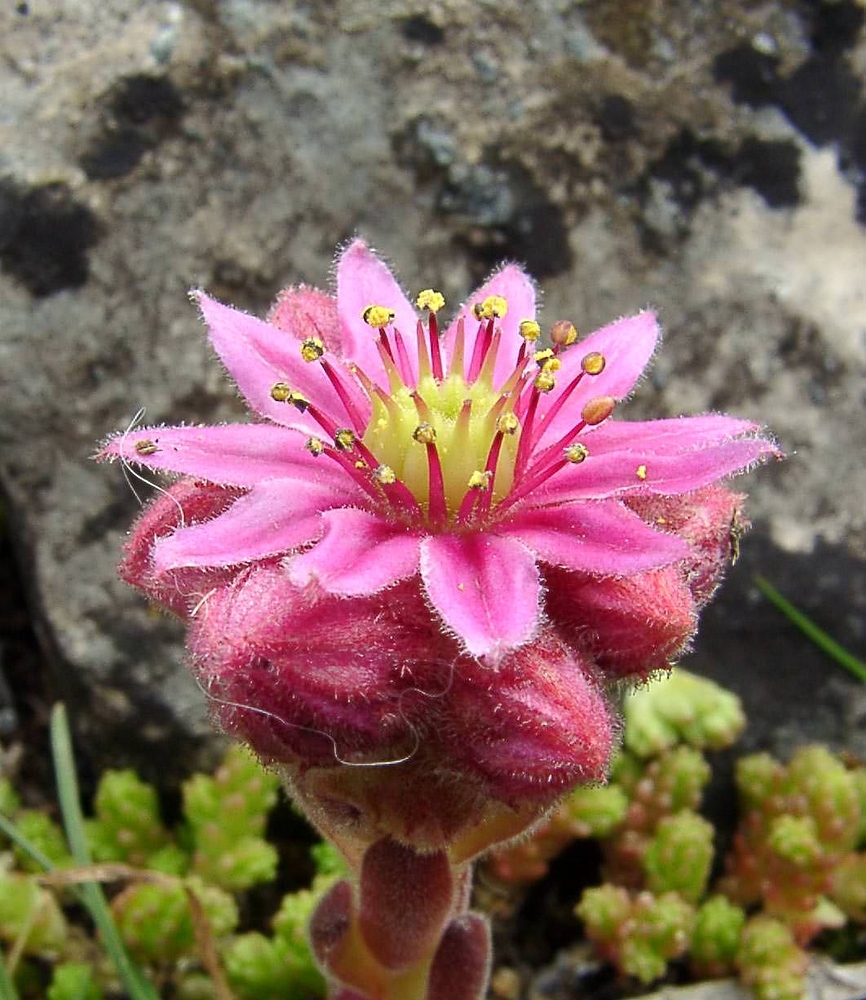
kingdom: Plantae
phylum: Tracheophyta
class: Magnoliopsida
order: Saxifragales
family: Crassulaceae
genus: Sempervivum
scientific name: Sempervivum montanum
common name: Mountain house-leek
